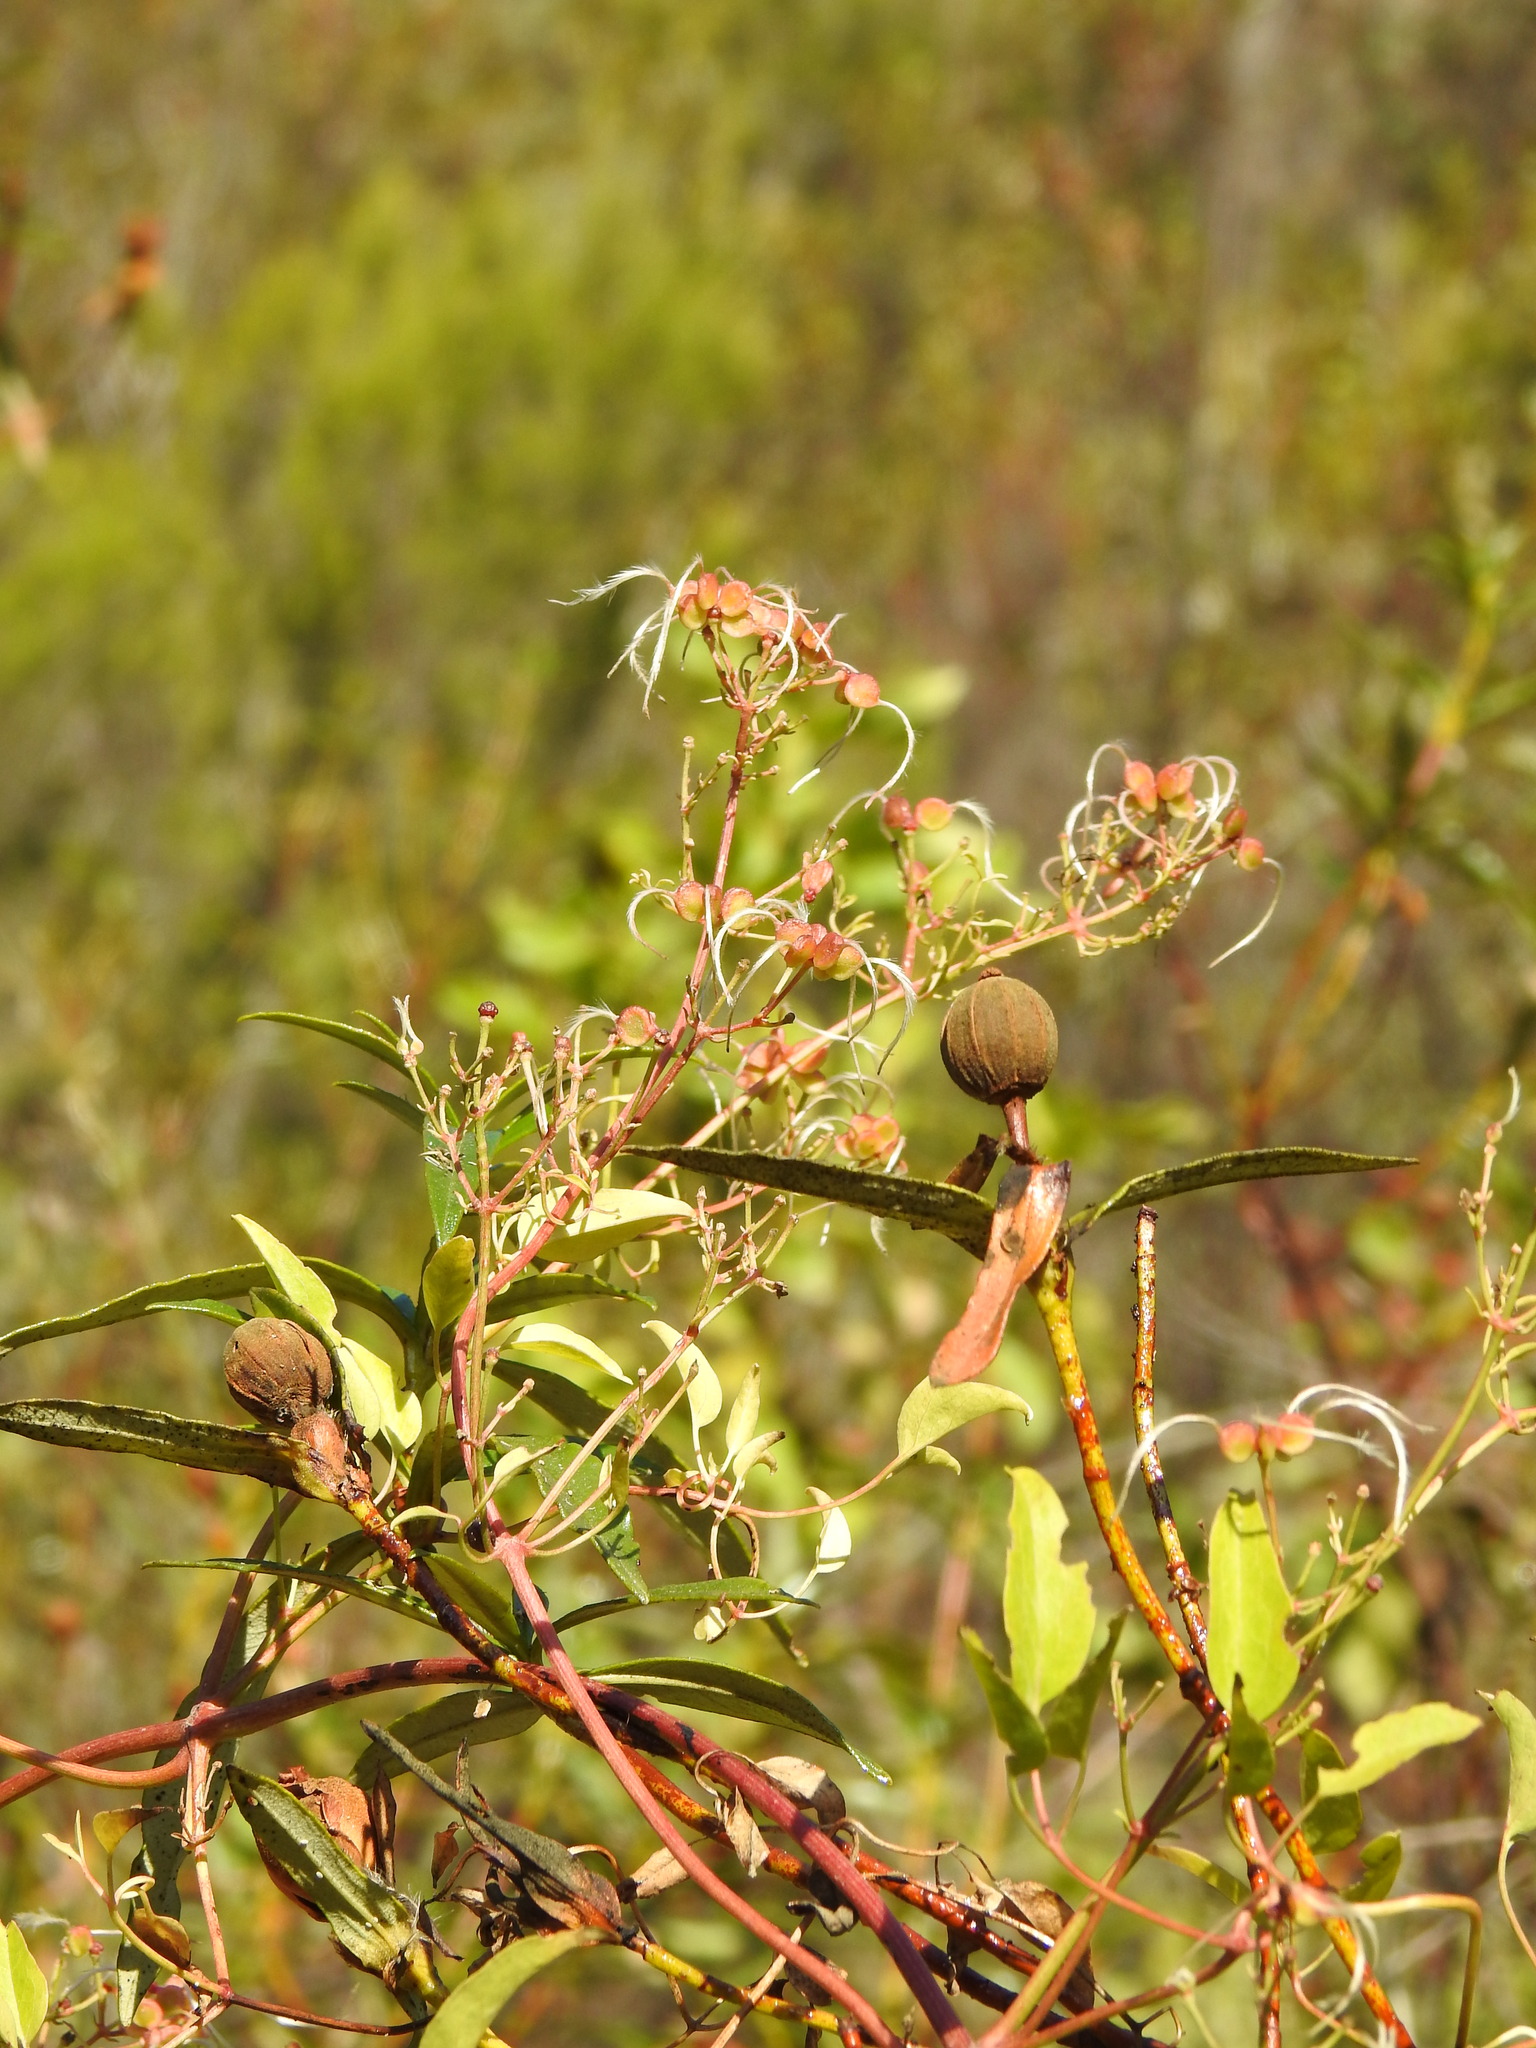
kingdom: Plantae
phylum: Tracheophyta
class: Magnoliopsida
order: Ranunculales
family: Ranunculaceae
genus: Clematis
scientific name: Clematis flammula
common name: Virgin's-bower
